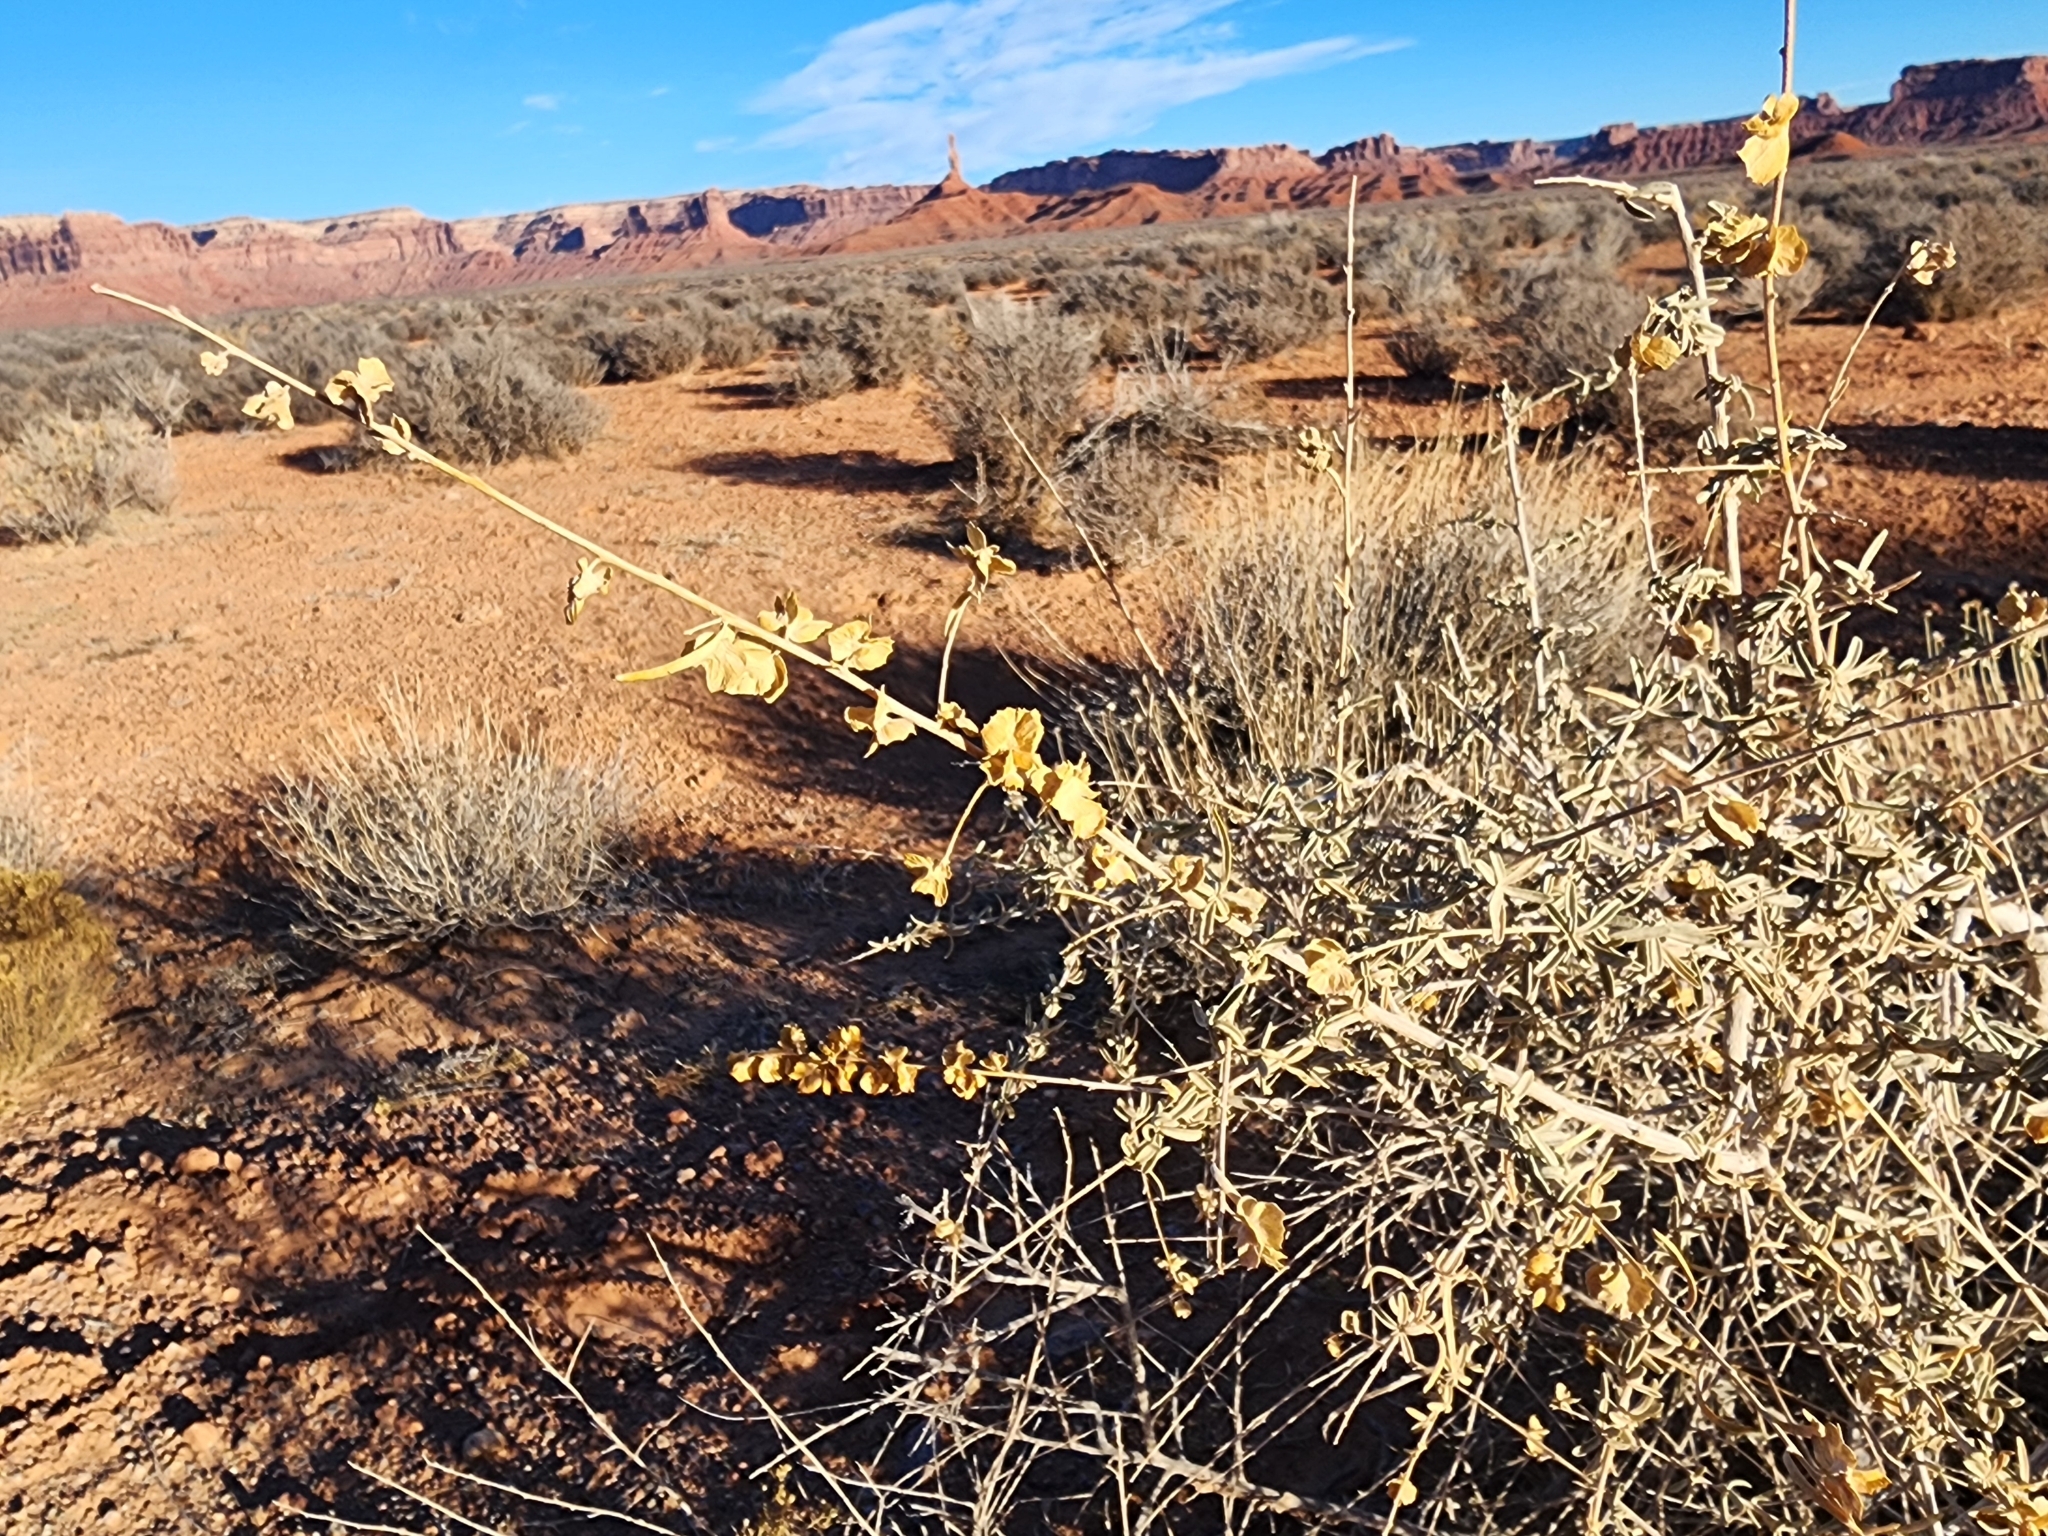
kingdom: Plantae
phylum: Tracheophyta
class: Magnoliopsida
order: Caryophyllales
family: Amaranthaceae
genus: Atriplex
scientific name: Atriplex canescens
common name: Four-wing saltbush
